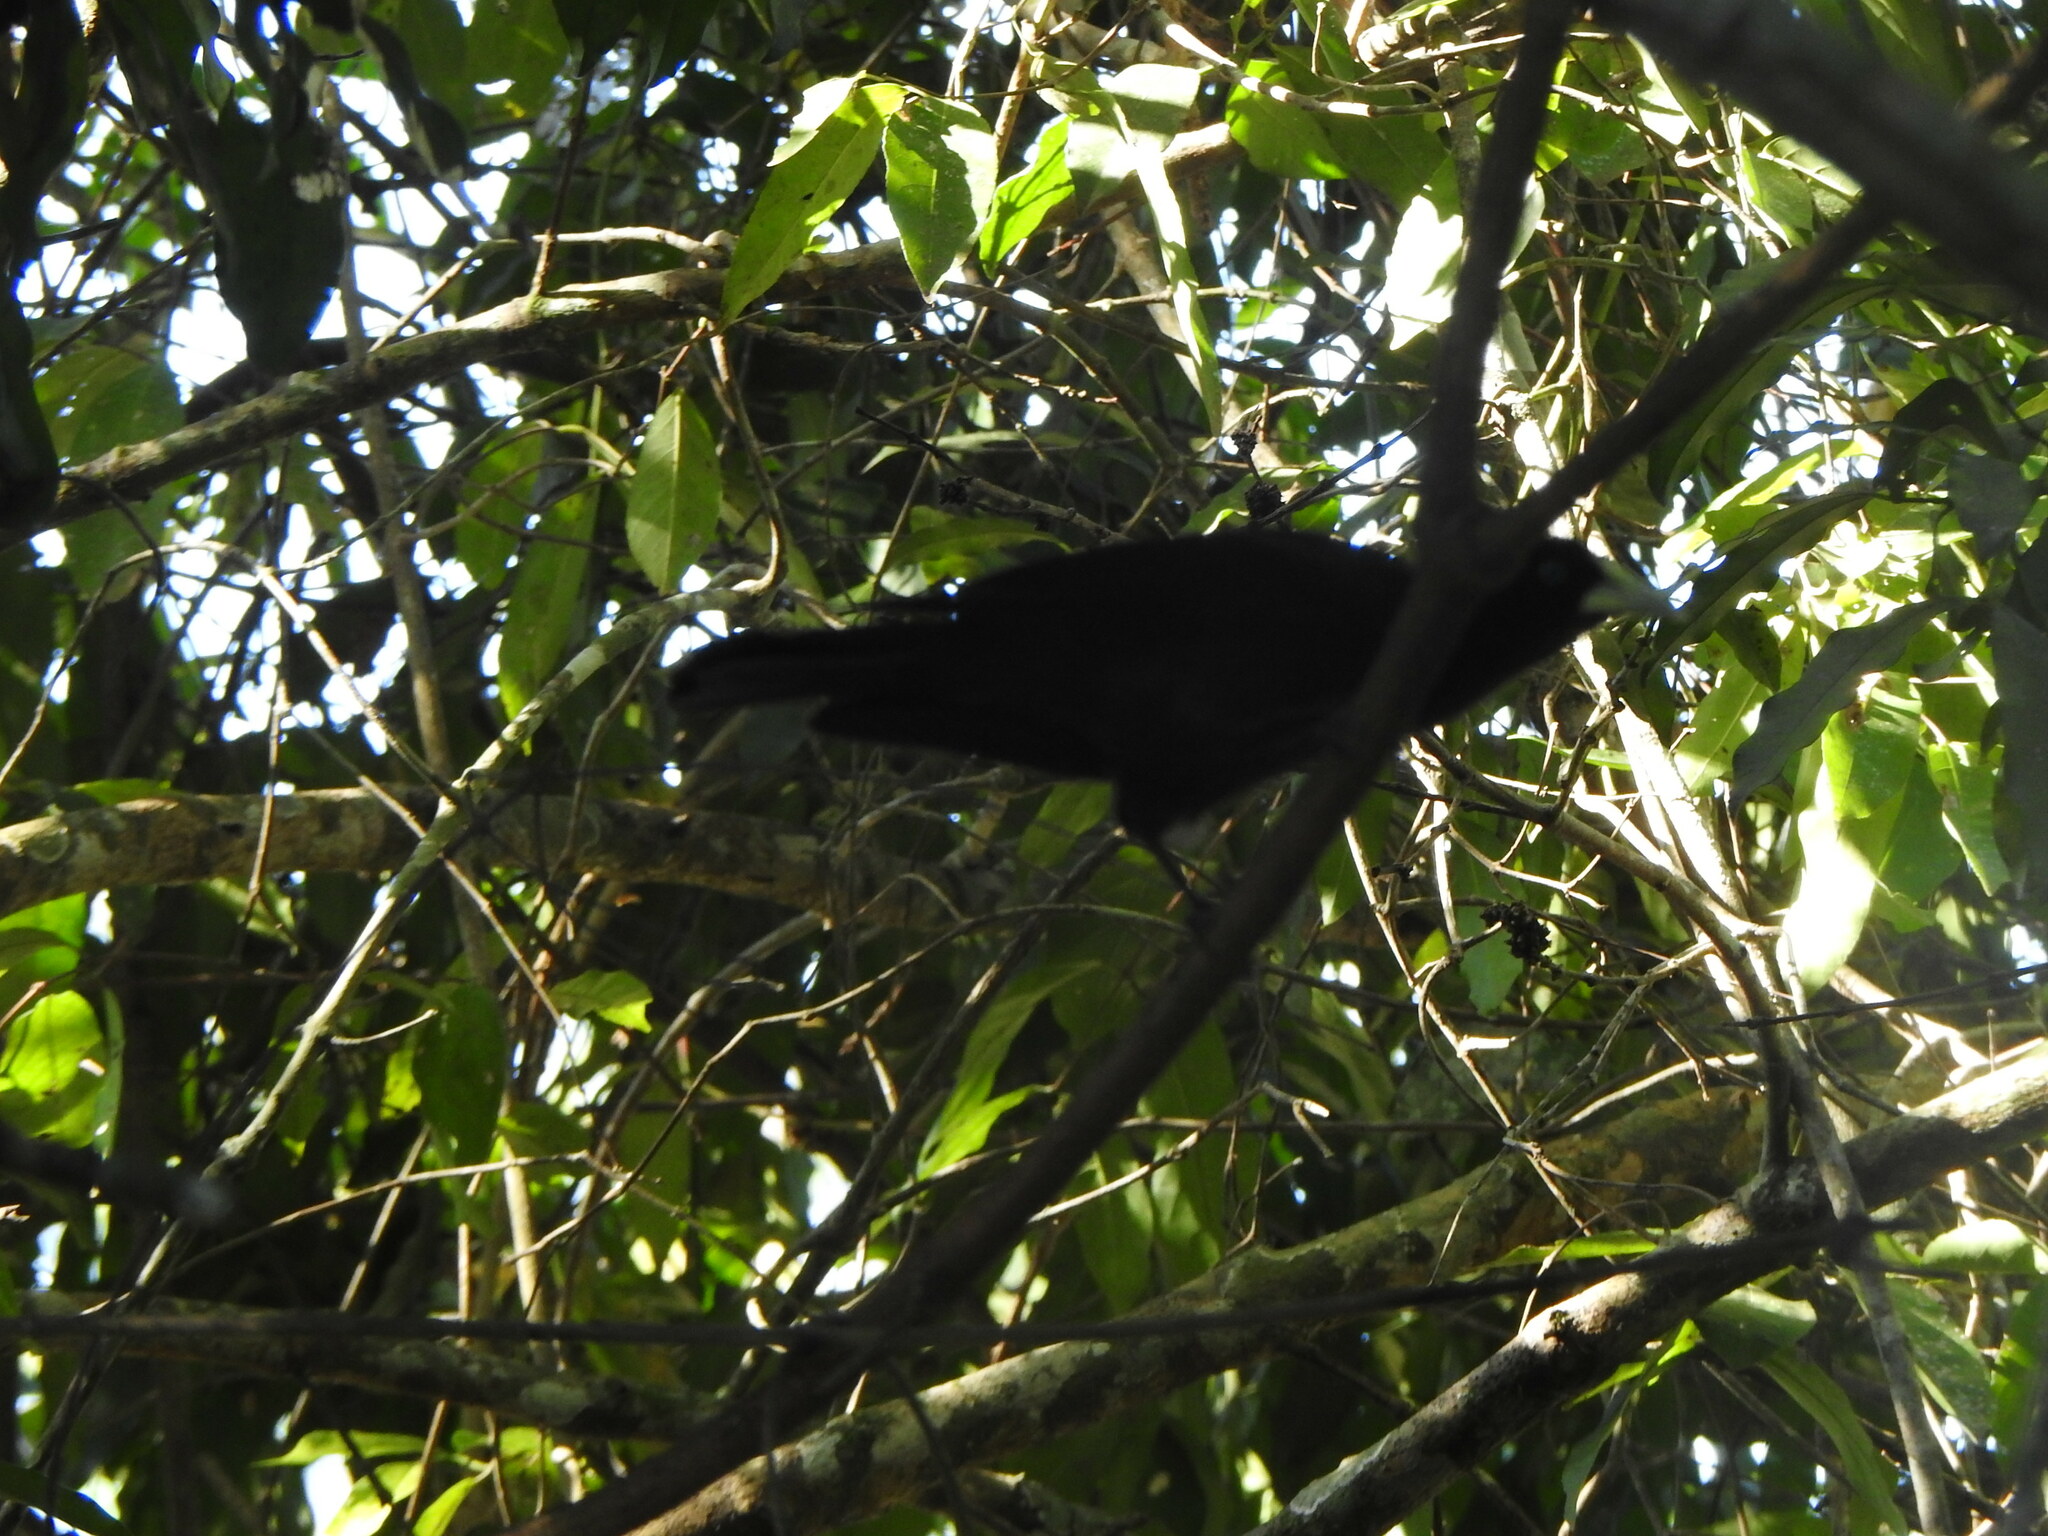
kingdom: Animalia
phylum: Chordata
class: Aves
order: Passeriformes
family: Icteridae
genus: Cacicus
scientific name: Cacicus haemorrhous
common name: Red-rumped cacique
